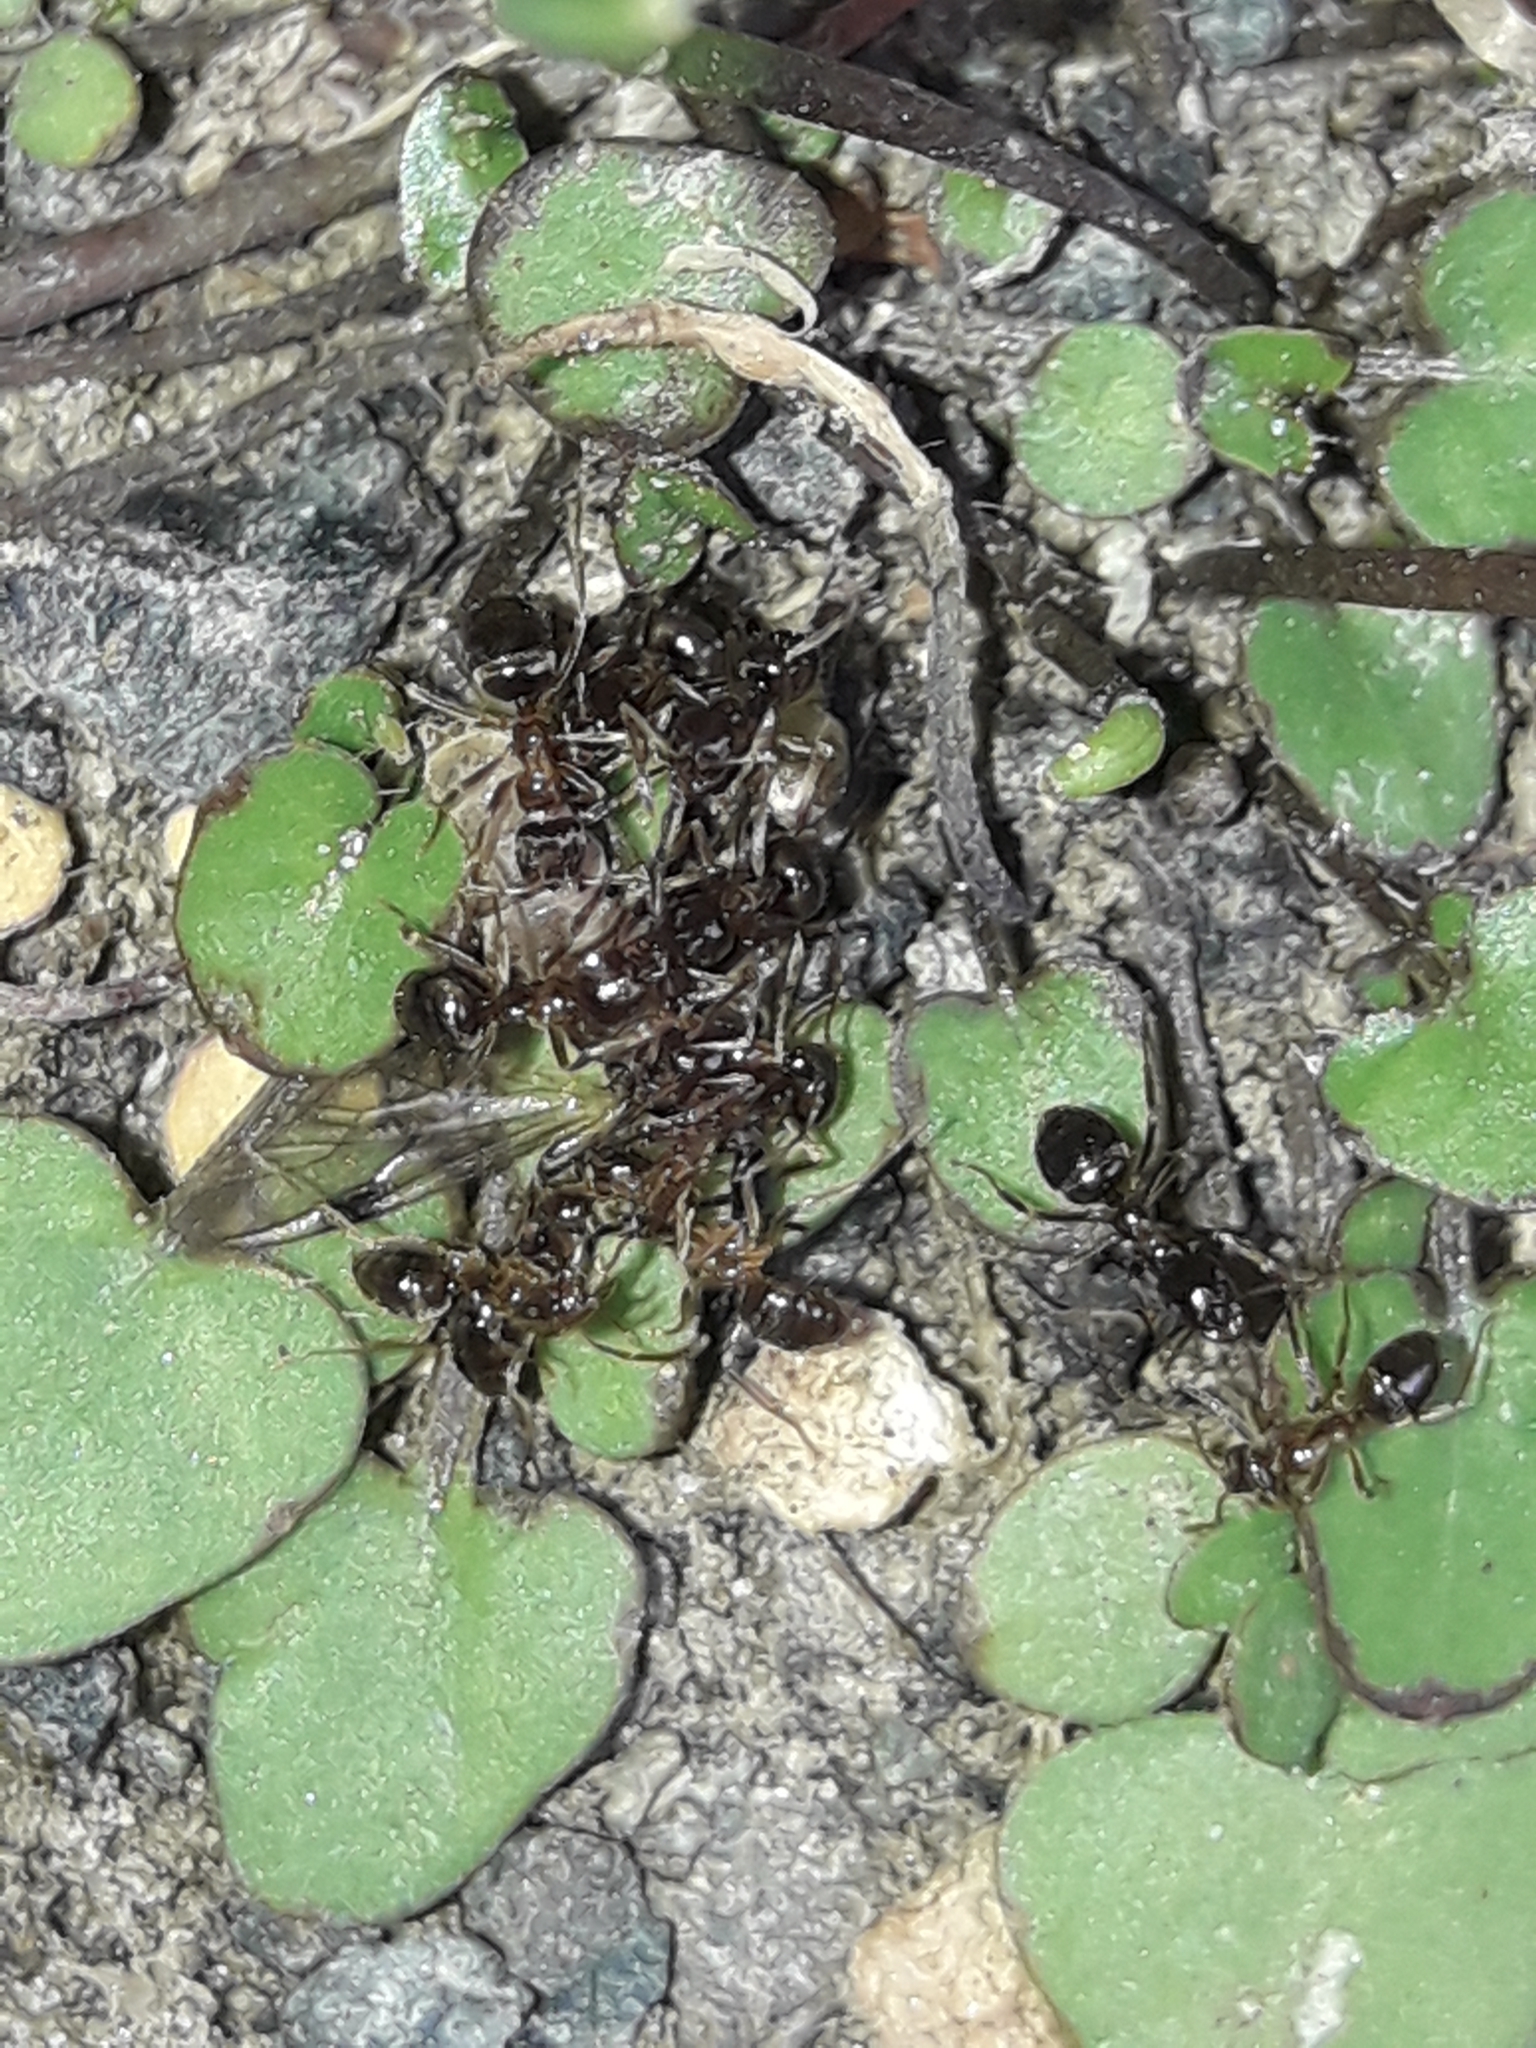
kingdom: Animalia
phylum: Arthropoda
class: Insecta
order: Hymenoptera
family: Formicidae
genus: Prolasius
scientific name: Prolasius advenus
